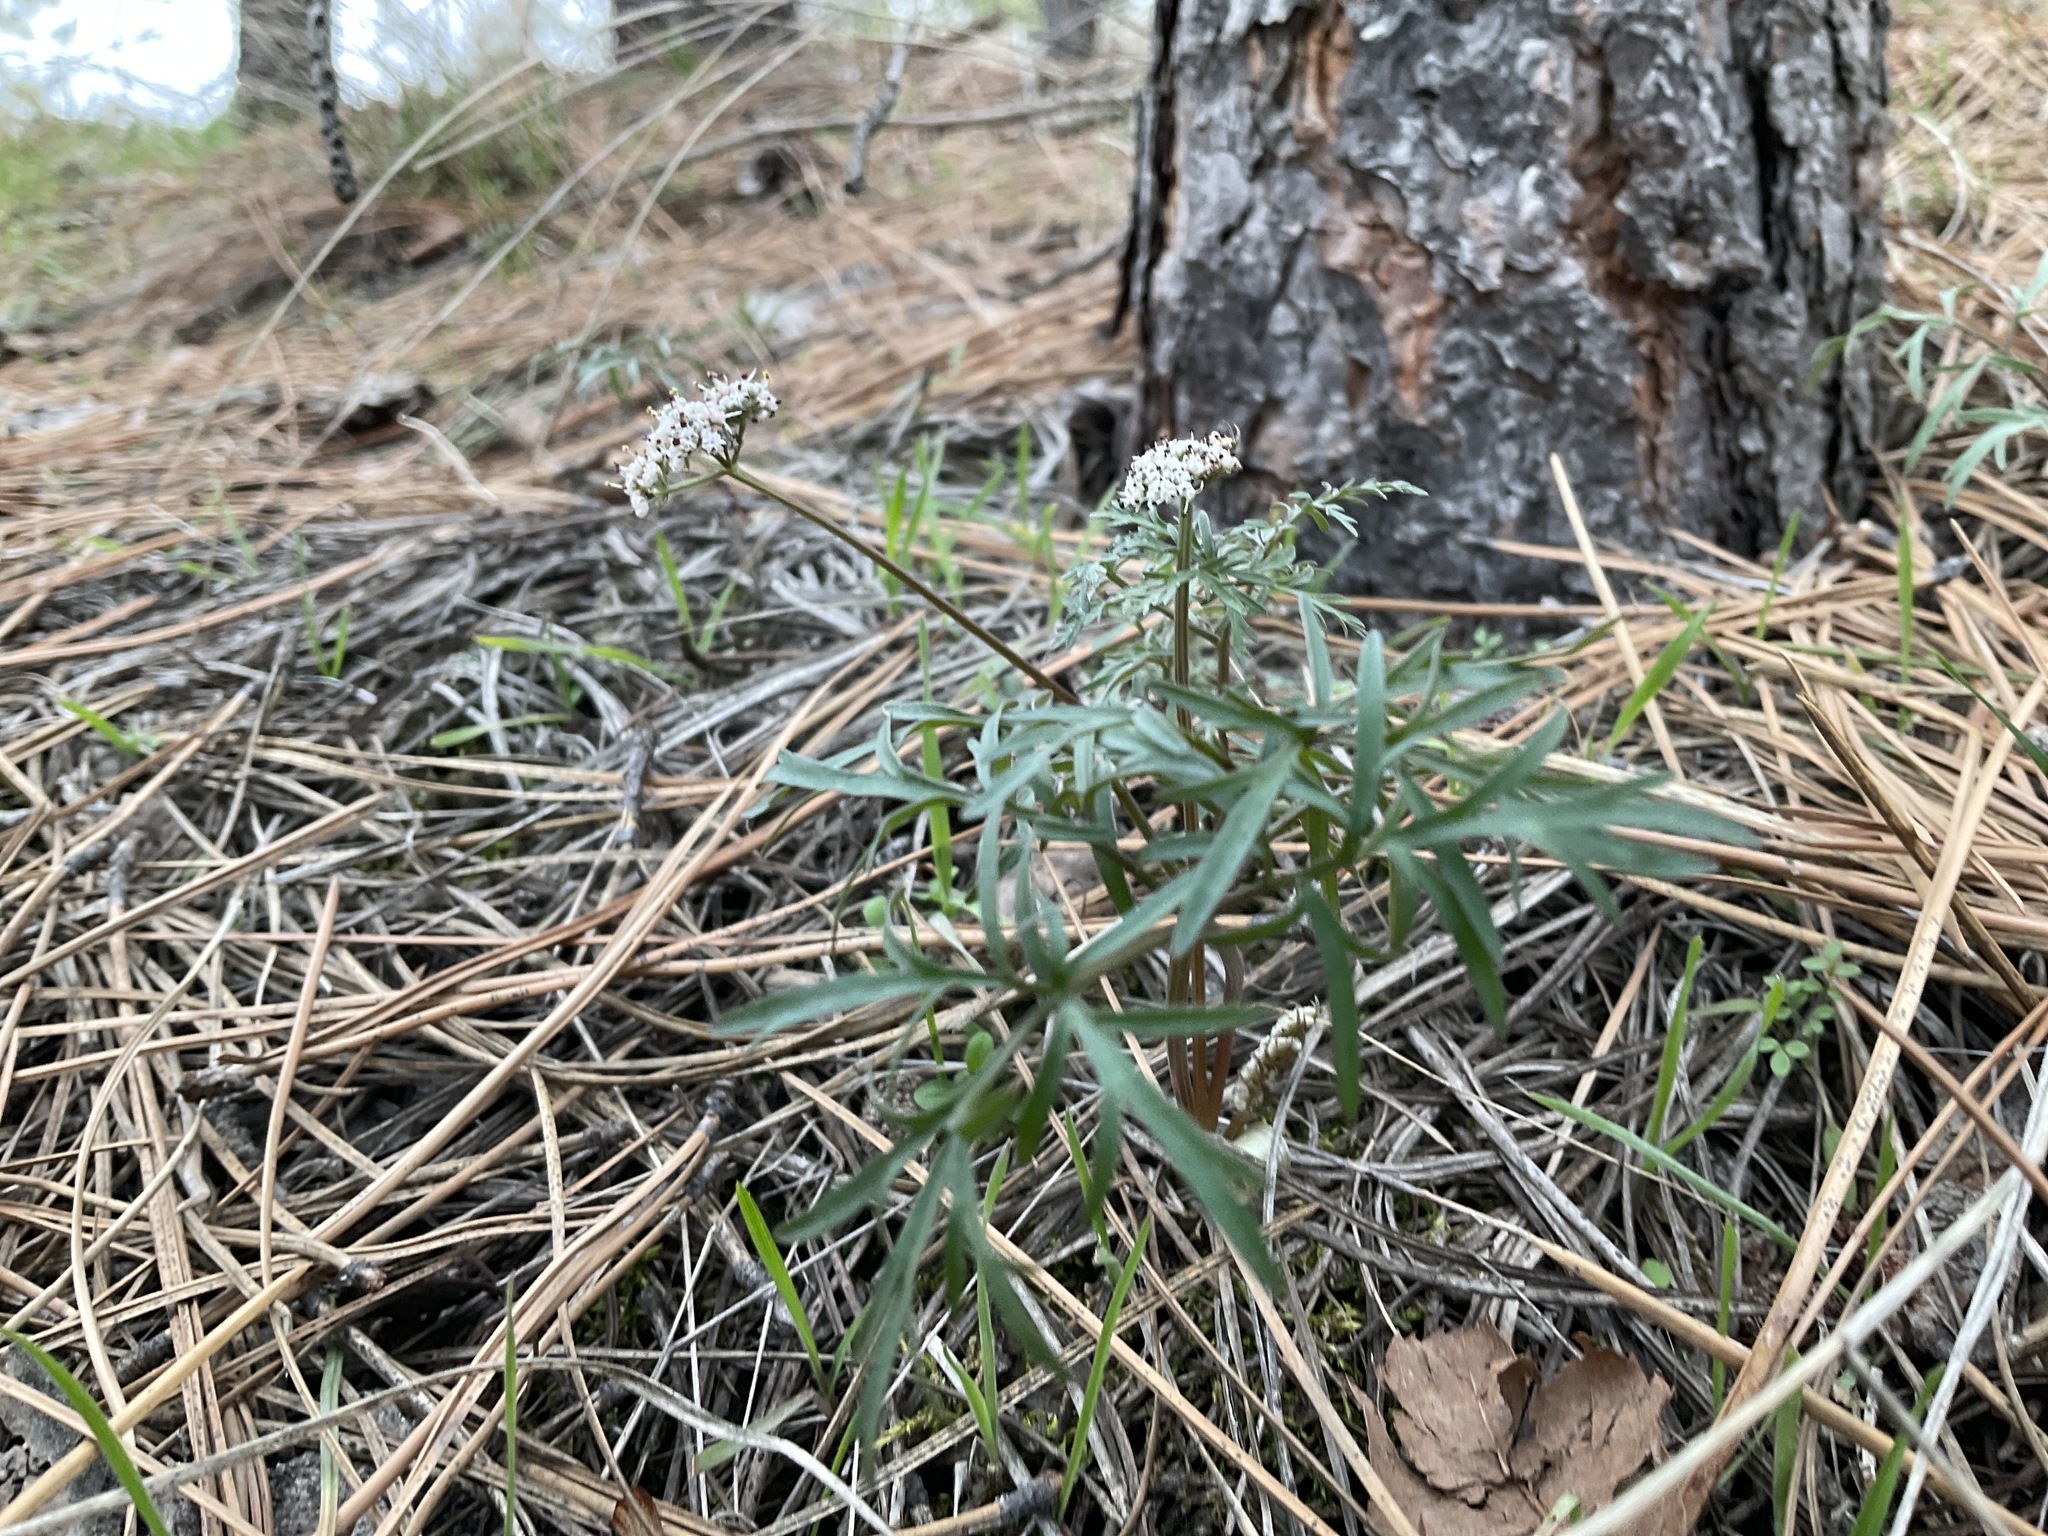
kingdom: Plantae
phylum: Tracheophyta
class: Magnoliopsida
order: Apiales
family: Apiaceae
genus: Lomatium
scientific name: Lomatium geyeri
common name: Geyer's biscuitroot
